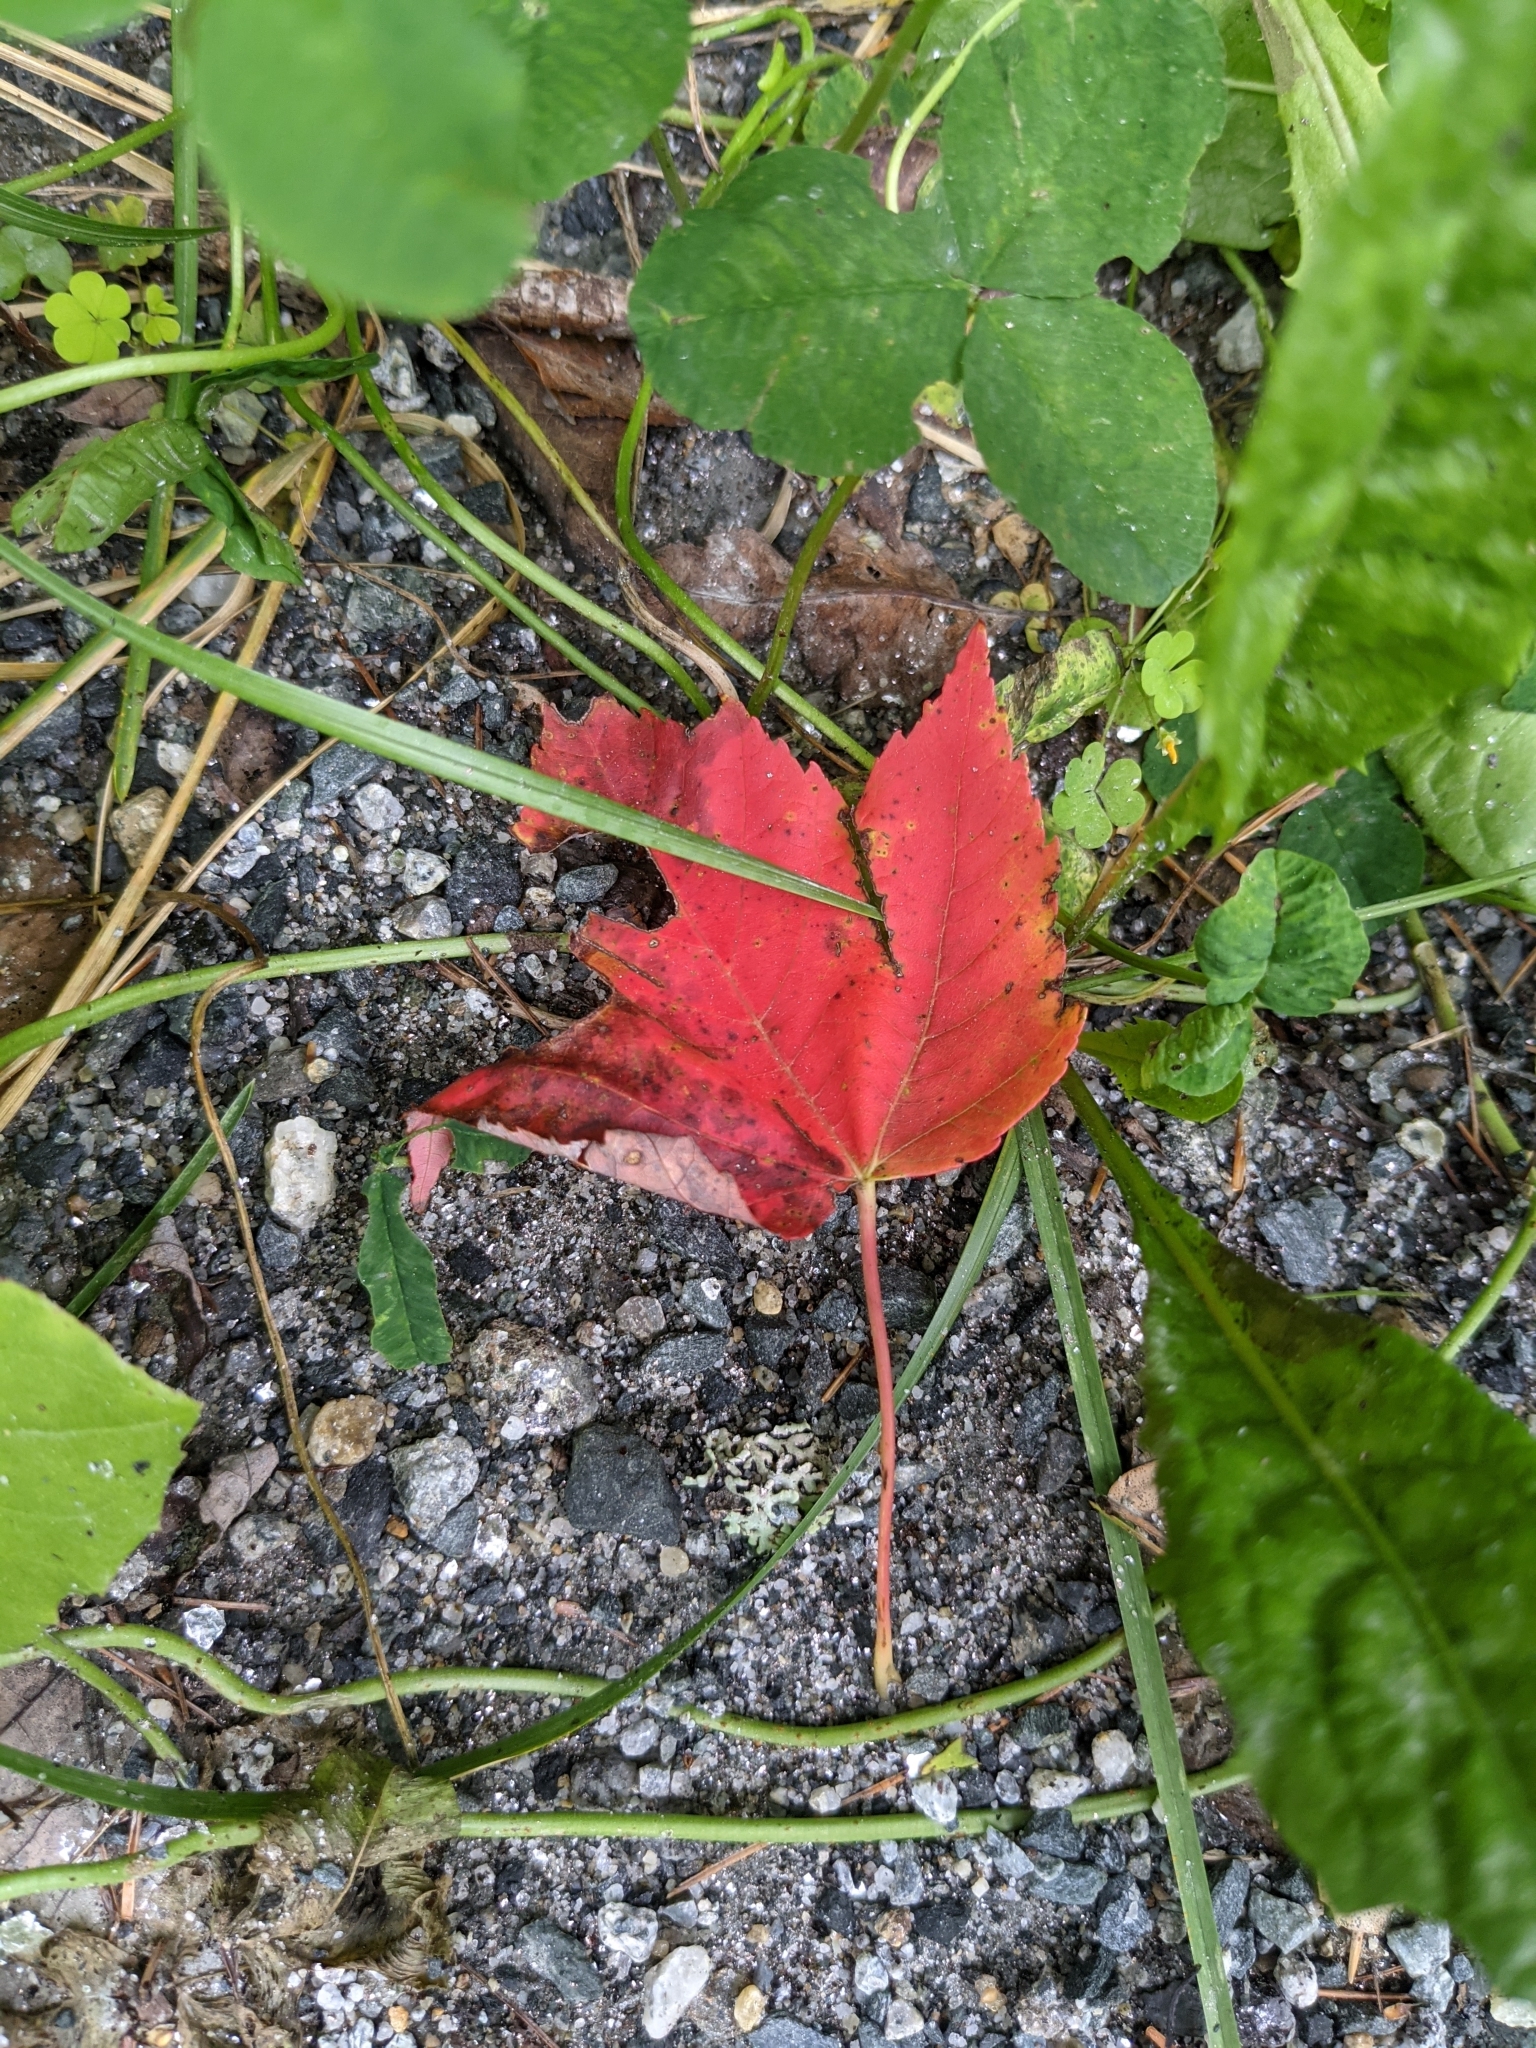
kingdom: Plantae
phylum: Tracheophyta
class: Magnoliopsida
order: Sapindales
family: Sapindaceae
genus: Acer
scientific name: Acer rubrum
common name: Red maple
